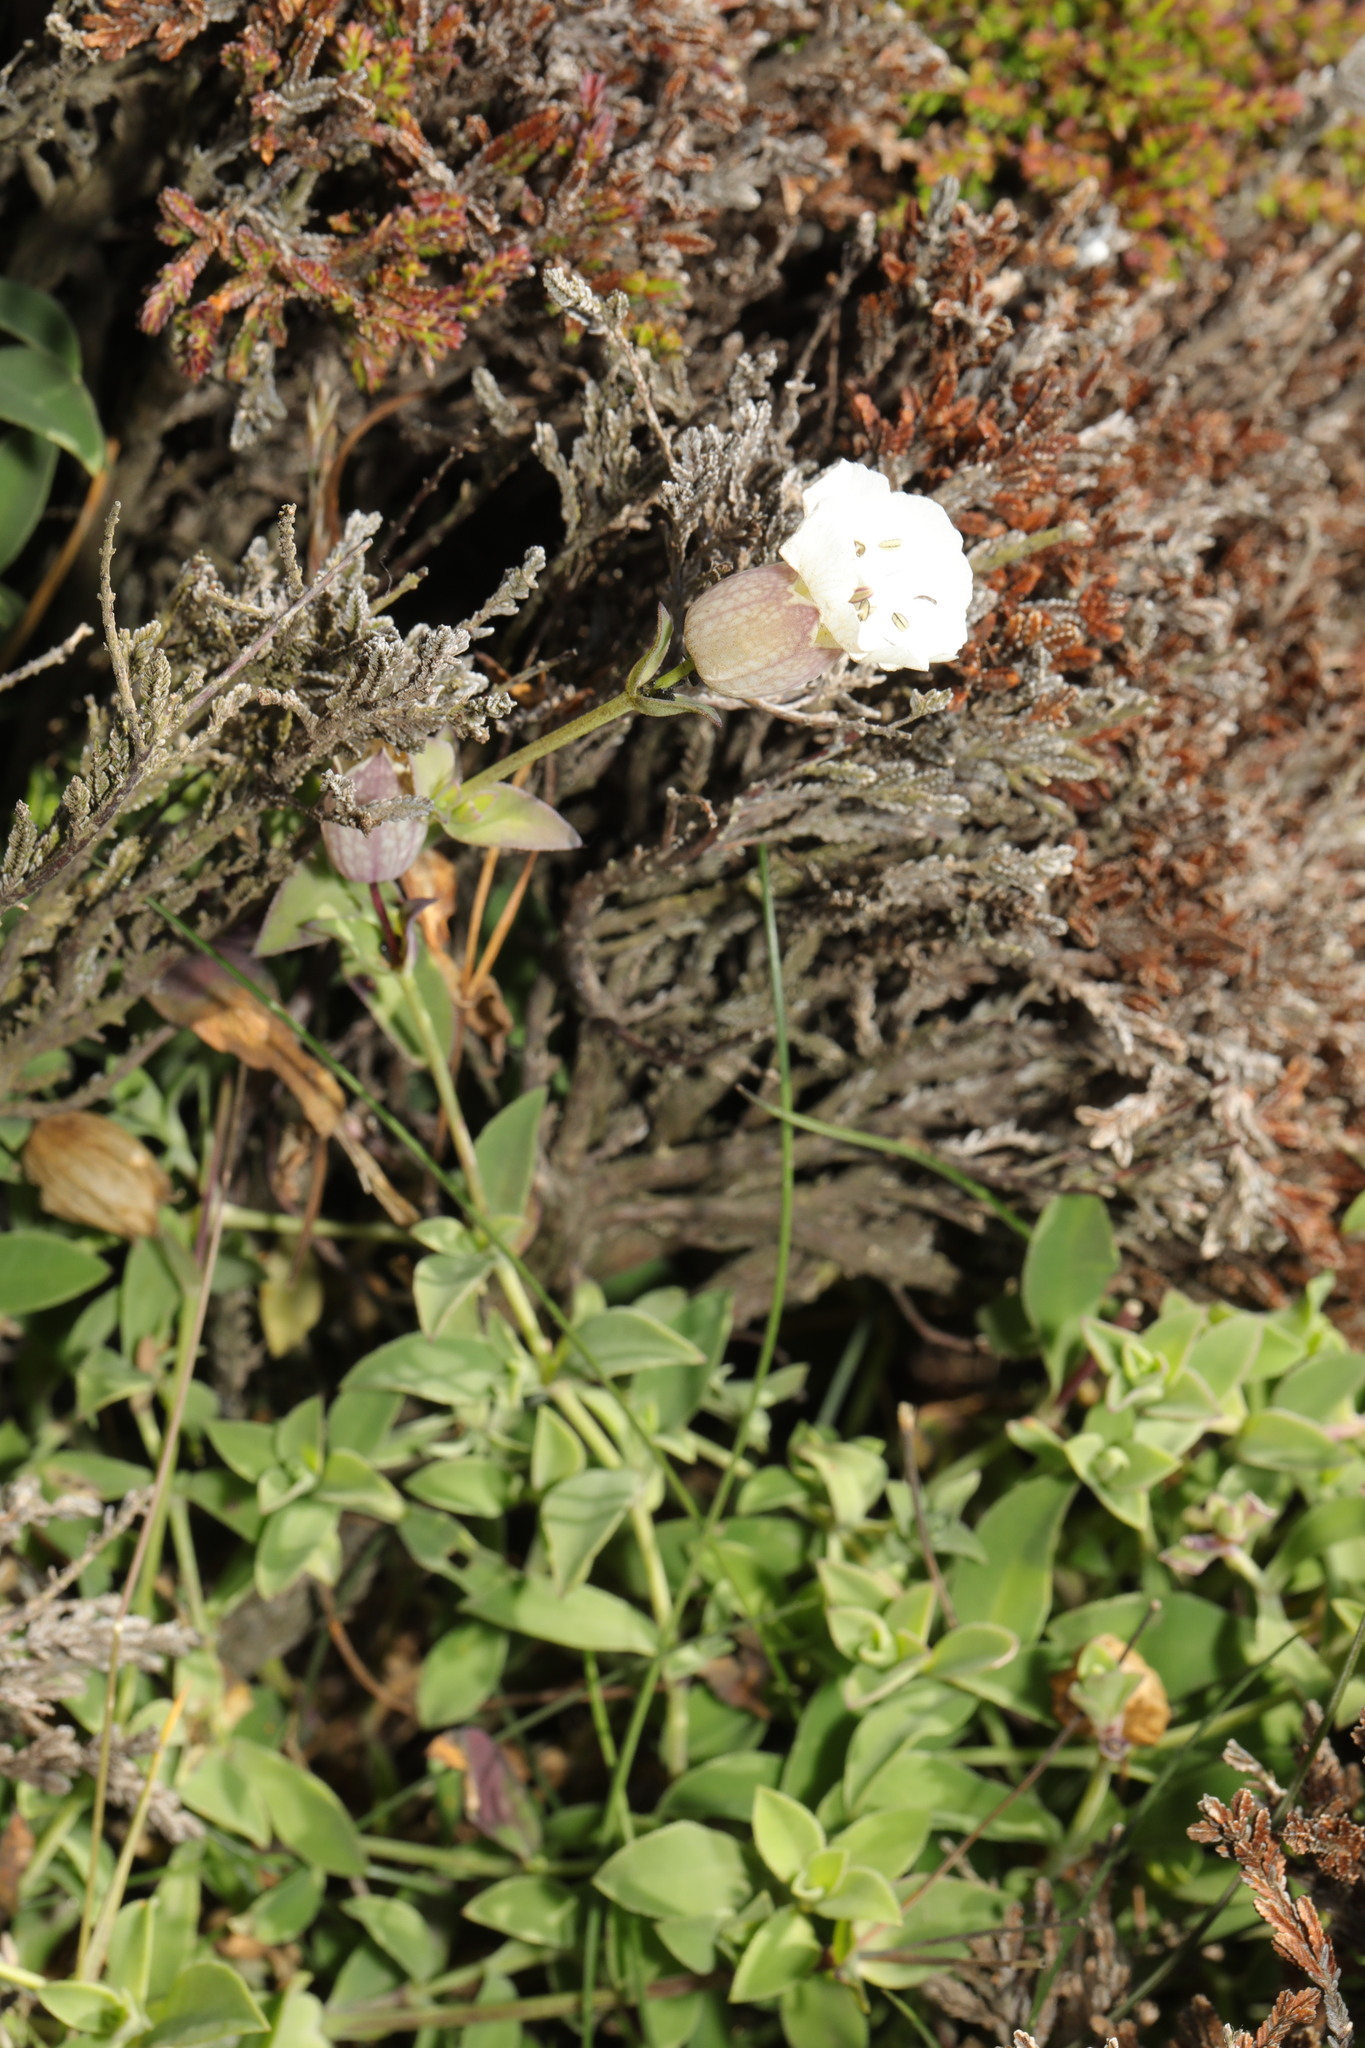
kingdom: Plantae
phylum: Tracheophyta
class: Magnoliopsida
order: Caryophyllales
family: Caryophyllaceae
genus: Silene
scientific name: Silene uniflora
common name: Sea campion
